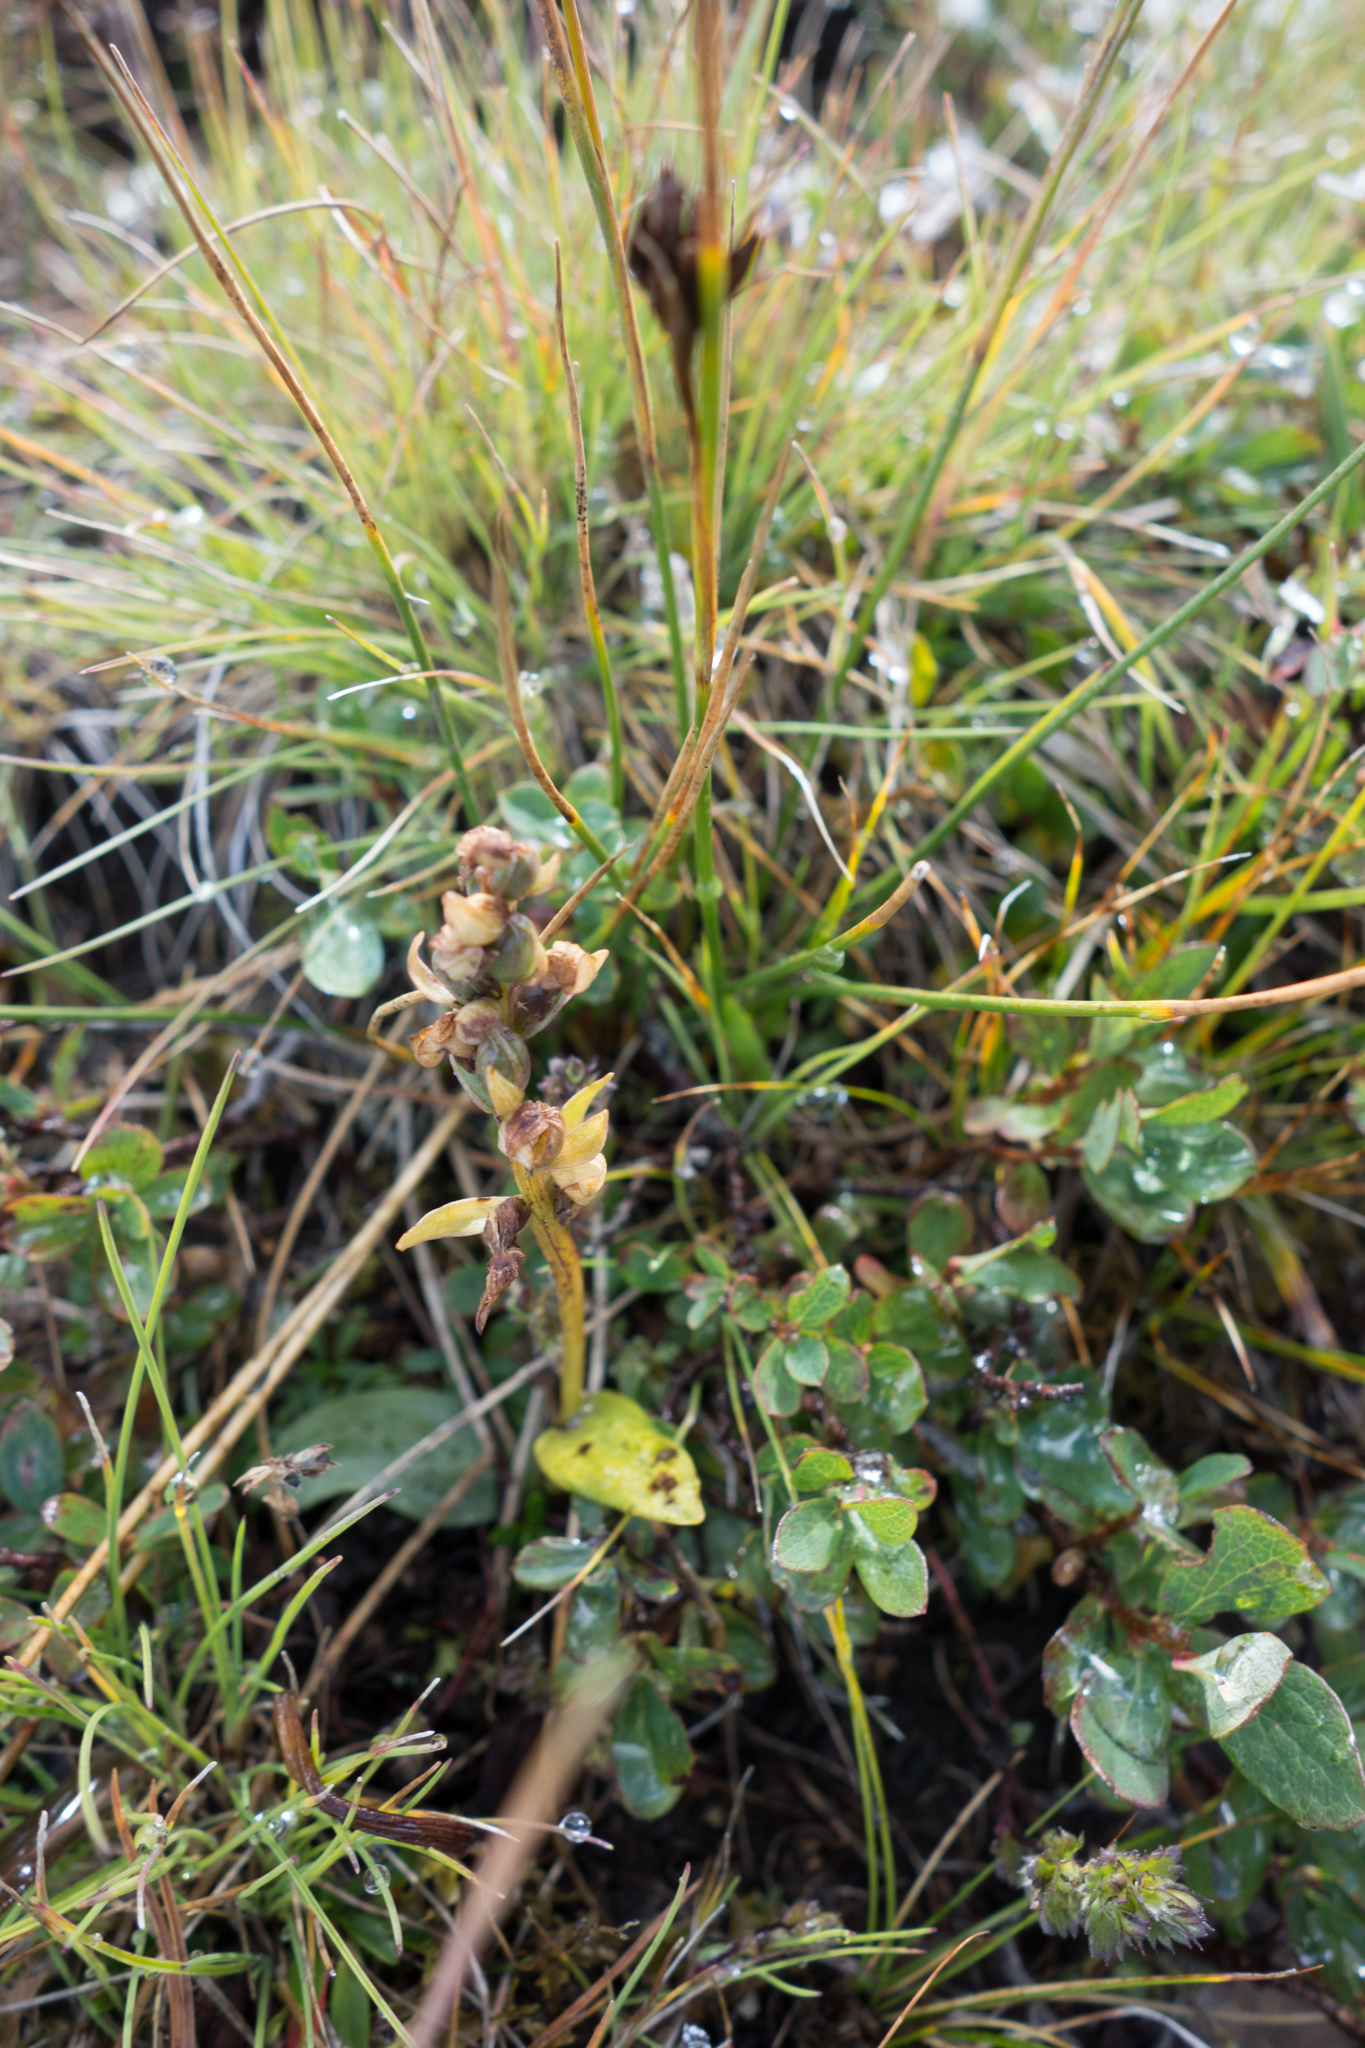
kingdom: Plantae
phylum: Tracheophyta
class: Liliopsida
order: Asparagales
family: Orchidaceae
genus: Dactylorhiza
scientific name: Dactylorhiza viridis
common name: Longbract frog orchid
